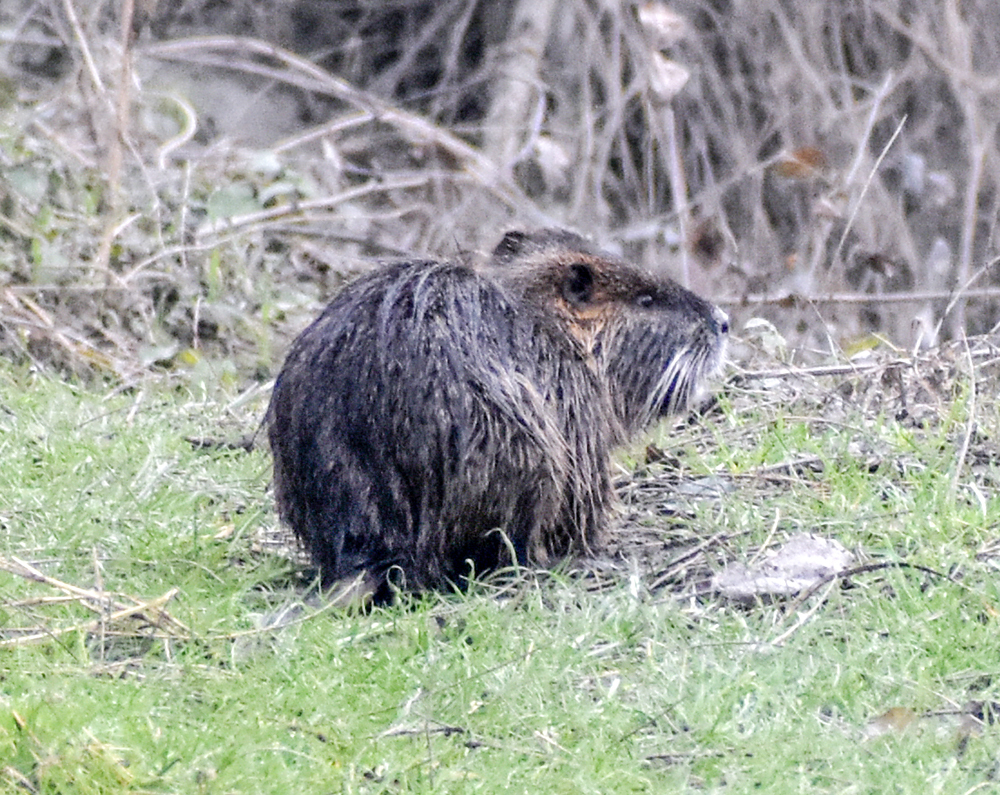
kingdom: Animalia
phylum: Chordata
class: Mammalia
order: Rodentia
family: Myocastoridae
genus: Myocastor
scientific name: Myocastor coypus
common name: Coypu
